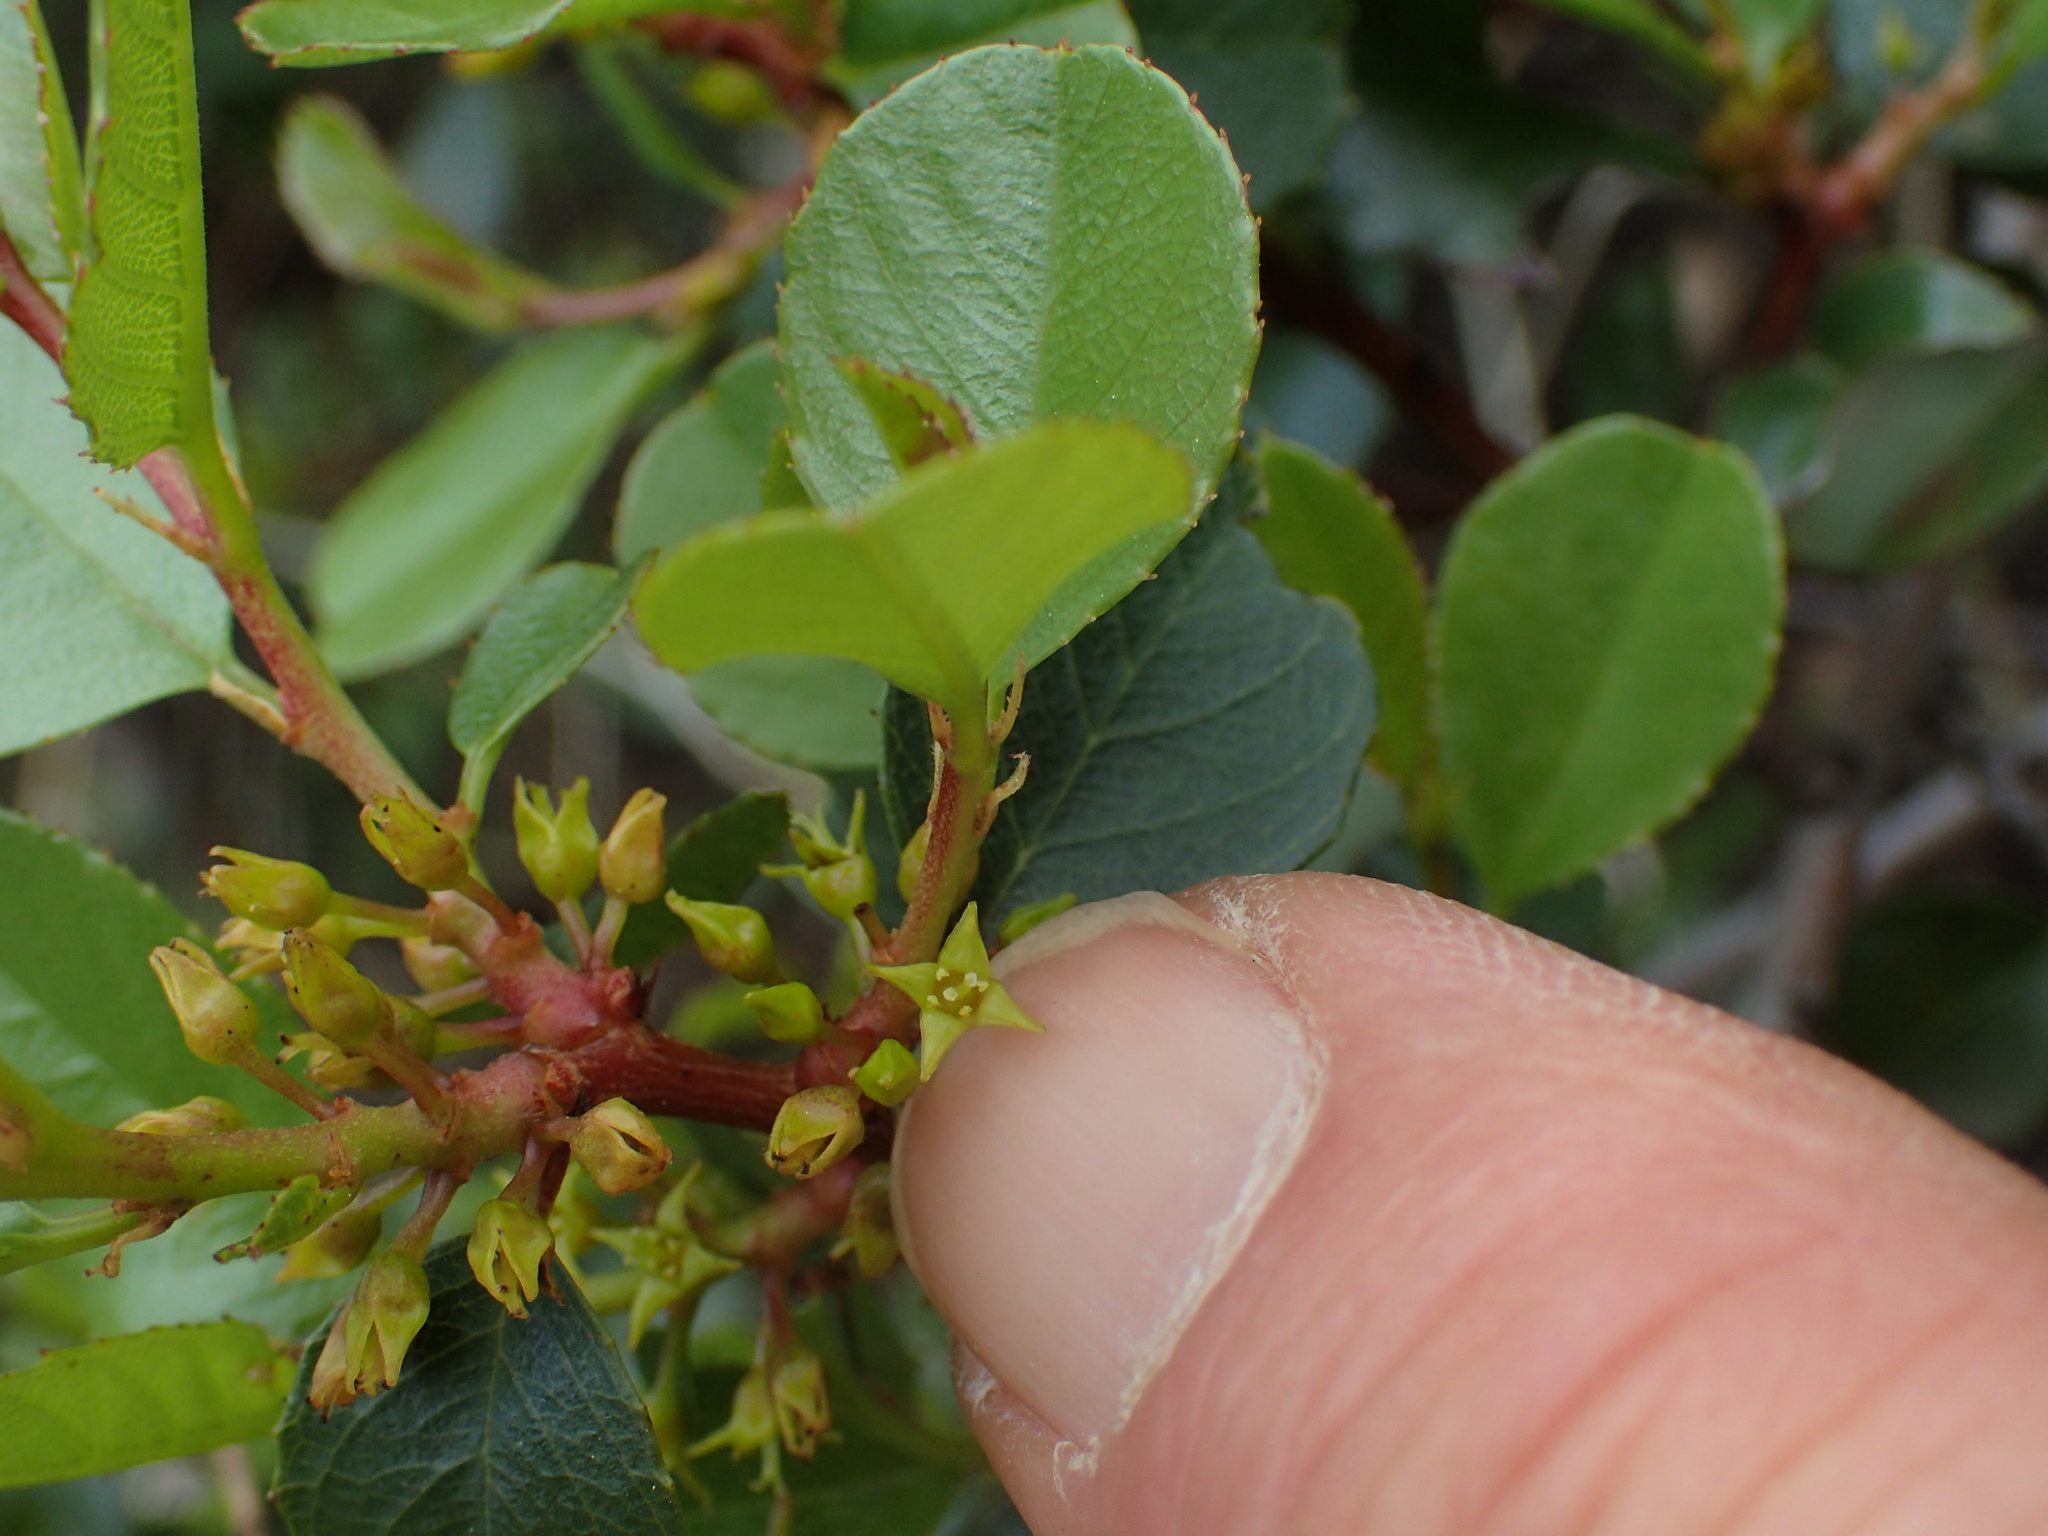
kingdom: Plantae
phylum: Tracheophyta
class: Magnoliopsida
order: Rosales
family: Rhamnaceae
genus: Endotropis
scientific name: Endotropis crocea
